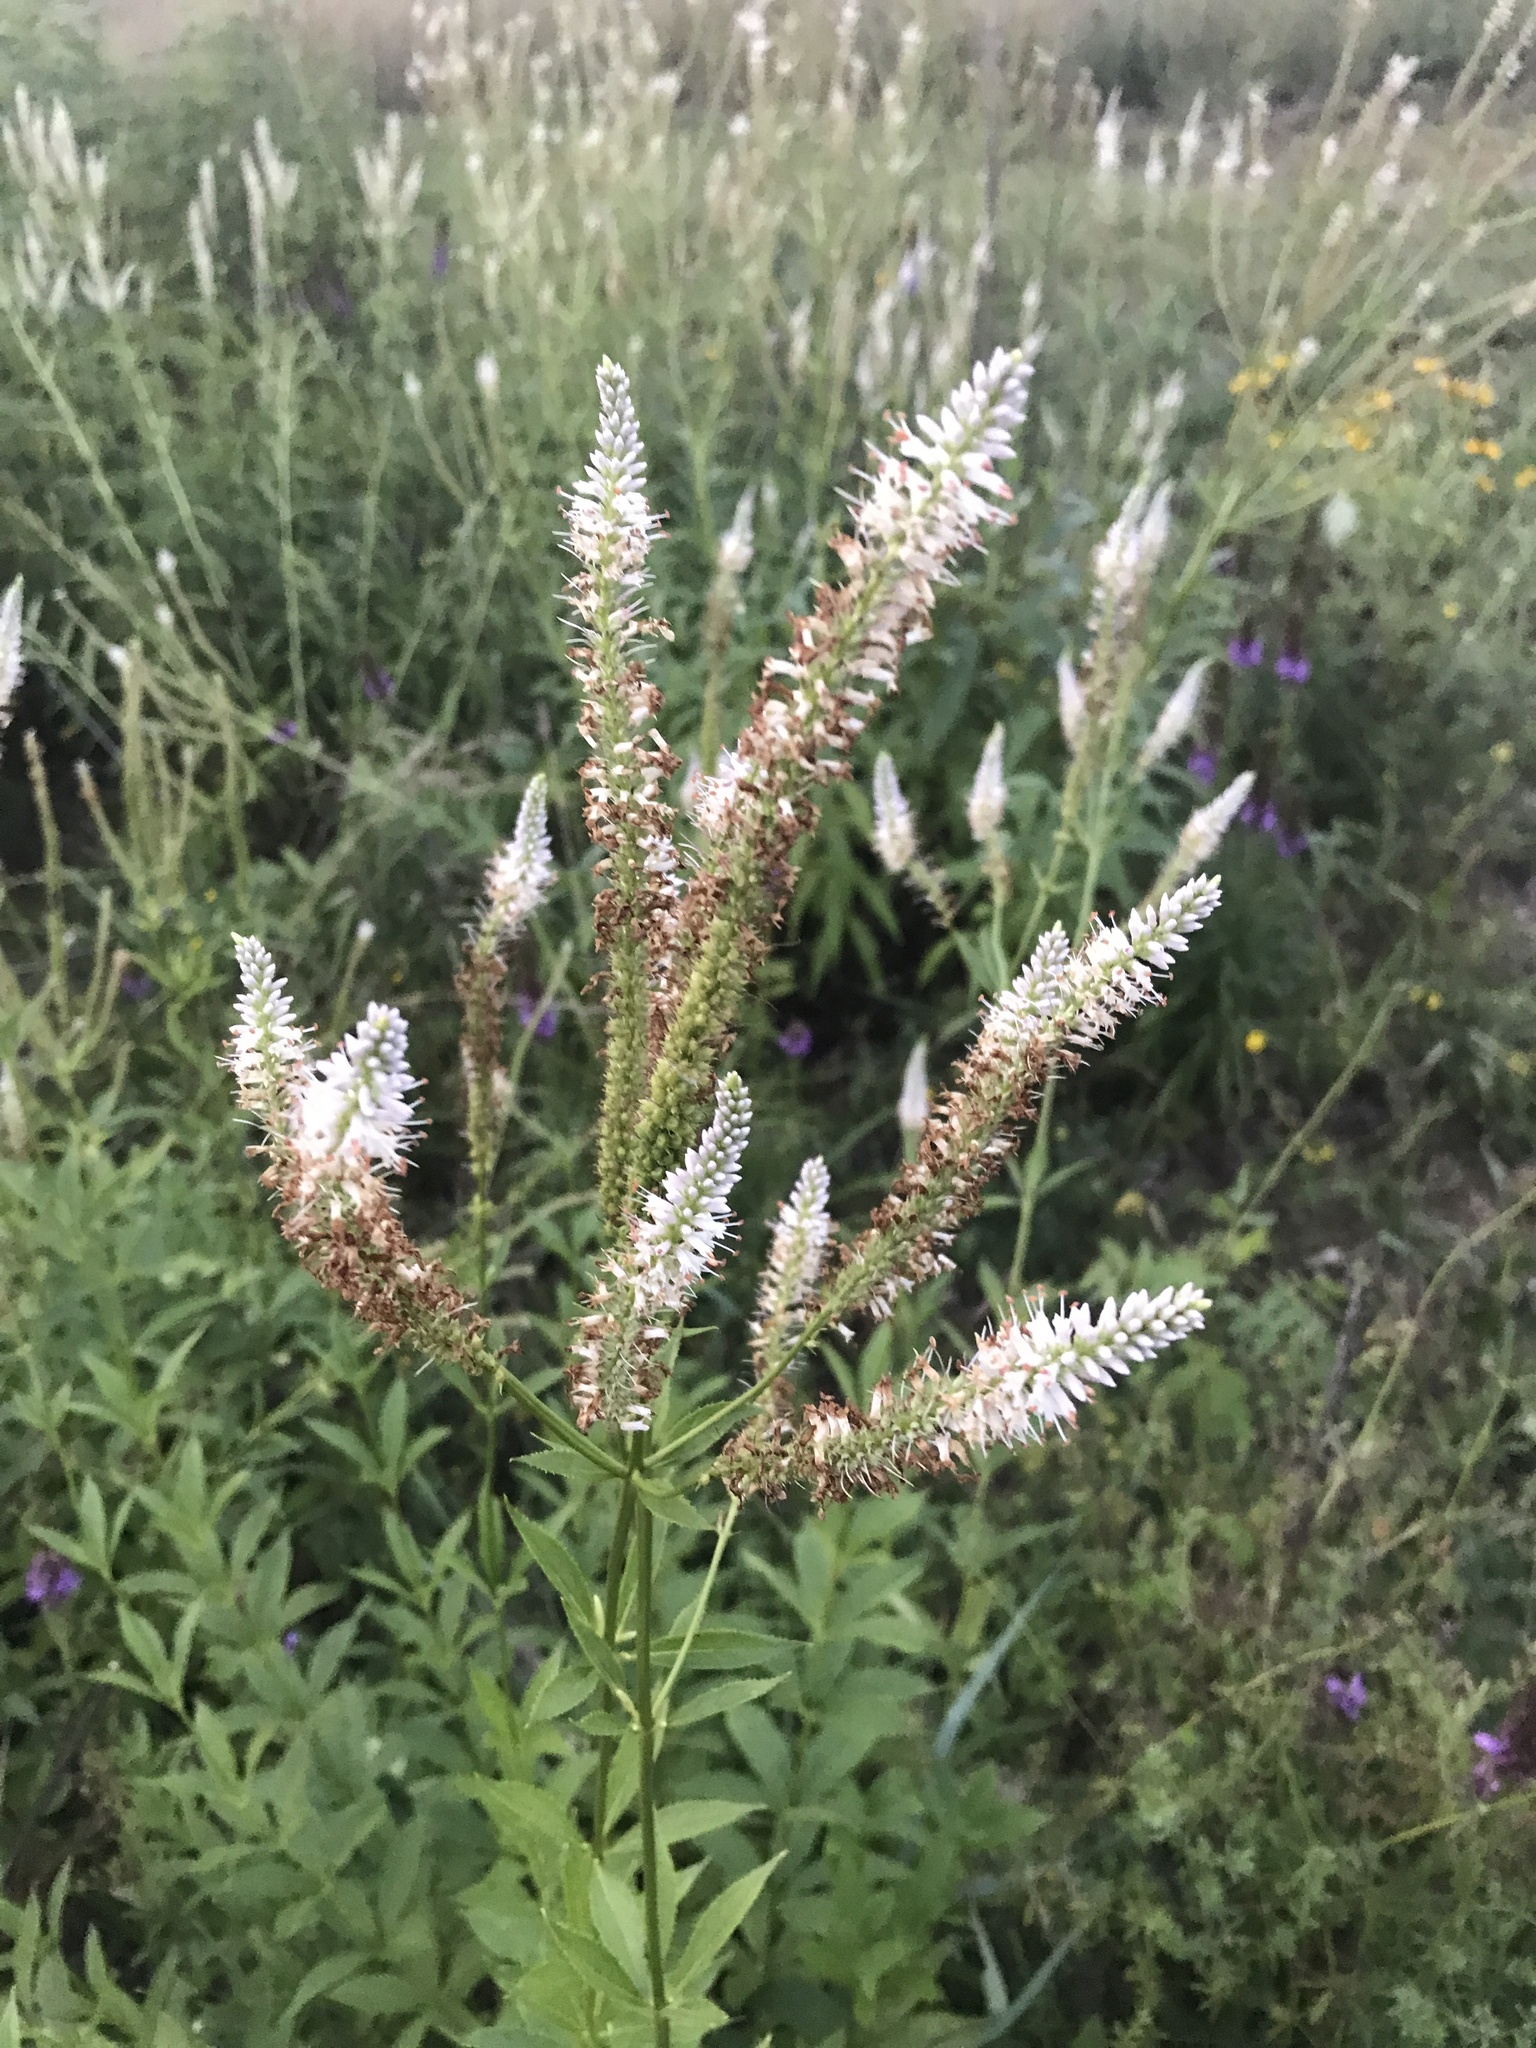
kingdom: Plantae
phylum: Tracheophyta
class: Magnoliopsida
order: Lamiales
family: Plantaginaceae
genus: Veronicastrum
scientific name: Veronicastrum virginicum
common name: Blackroot
